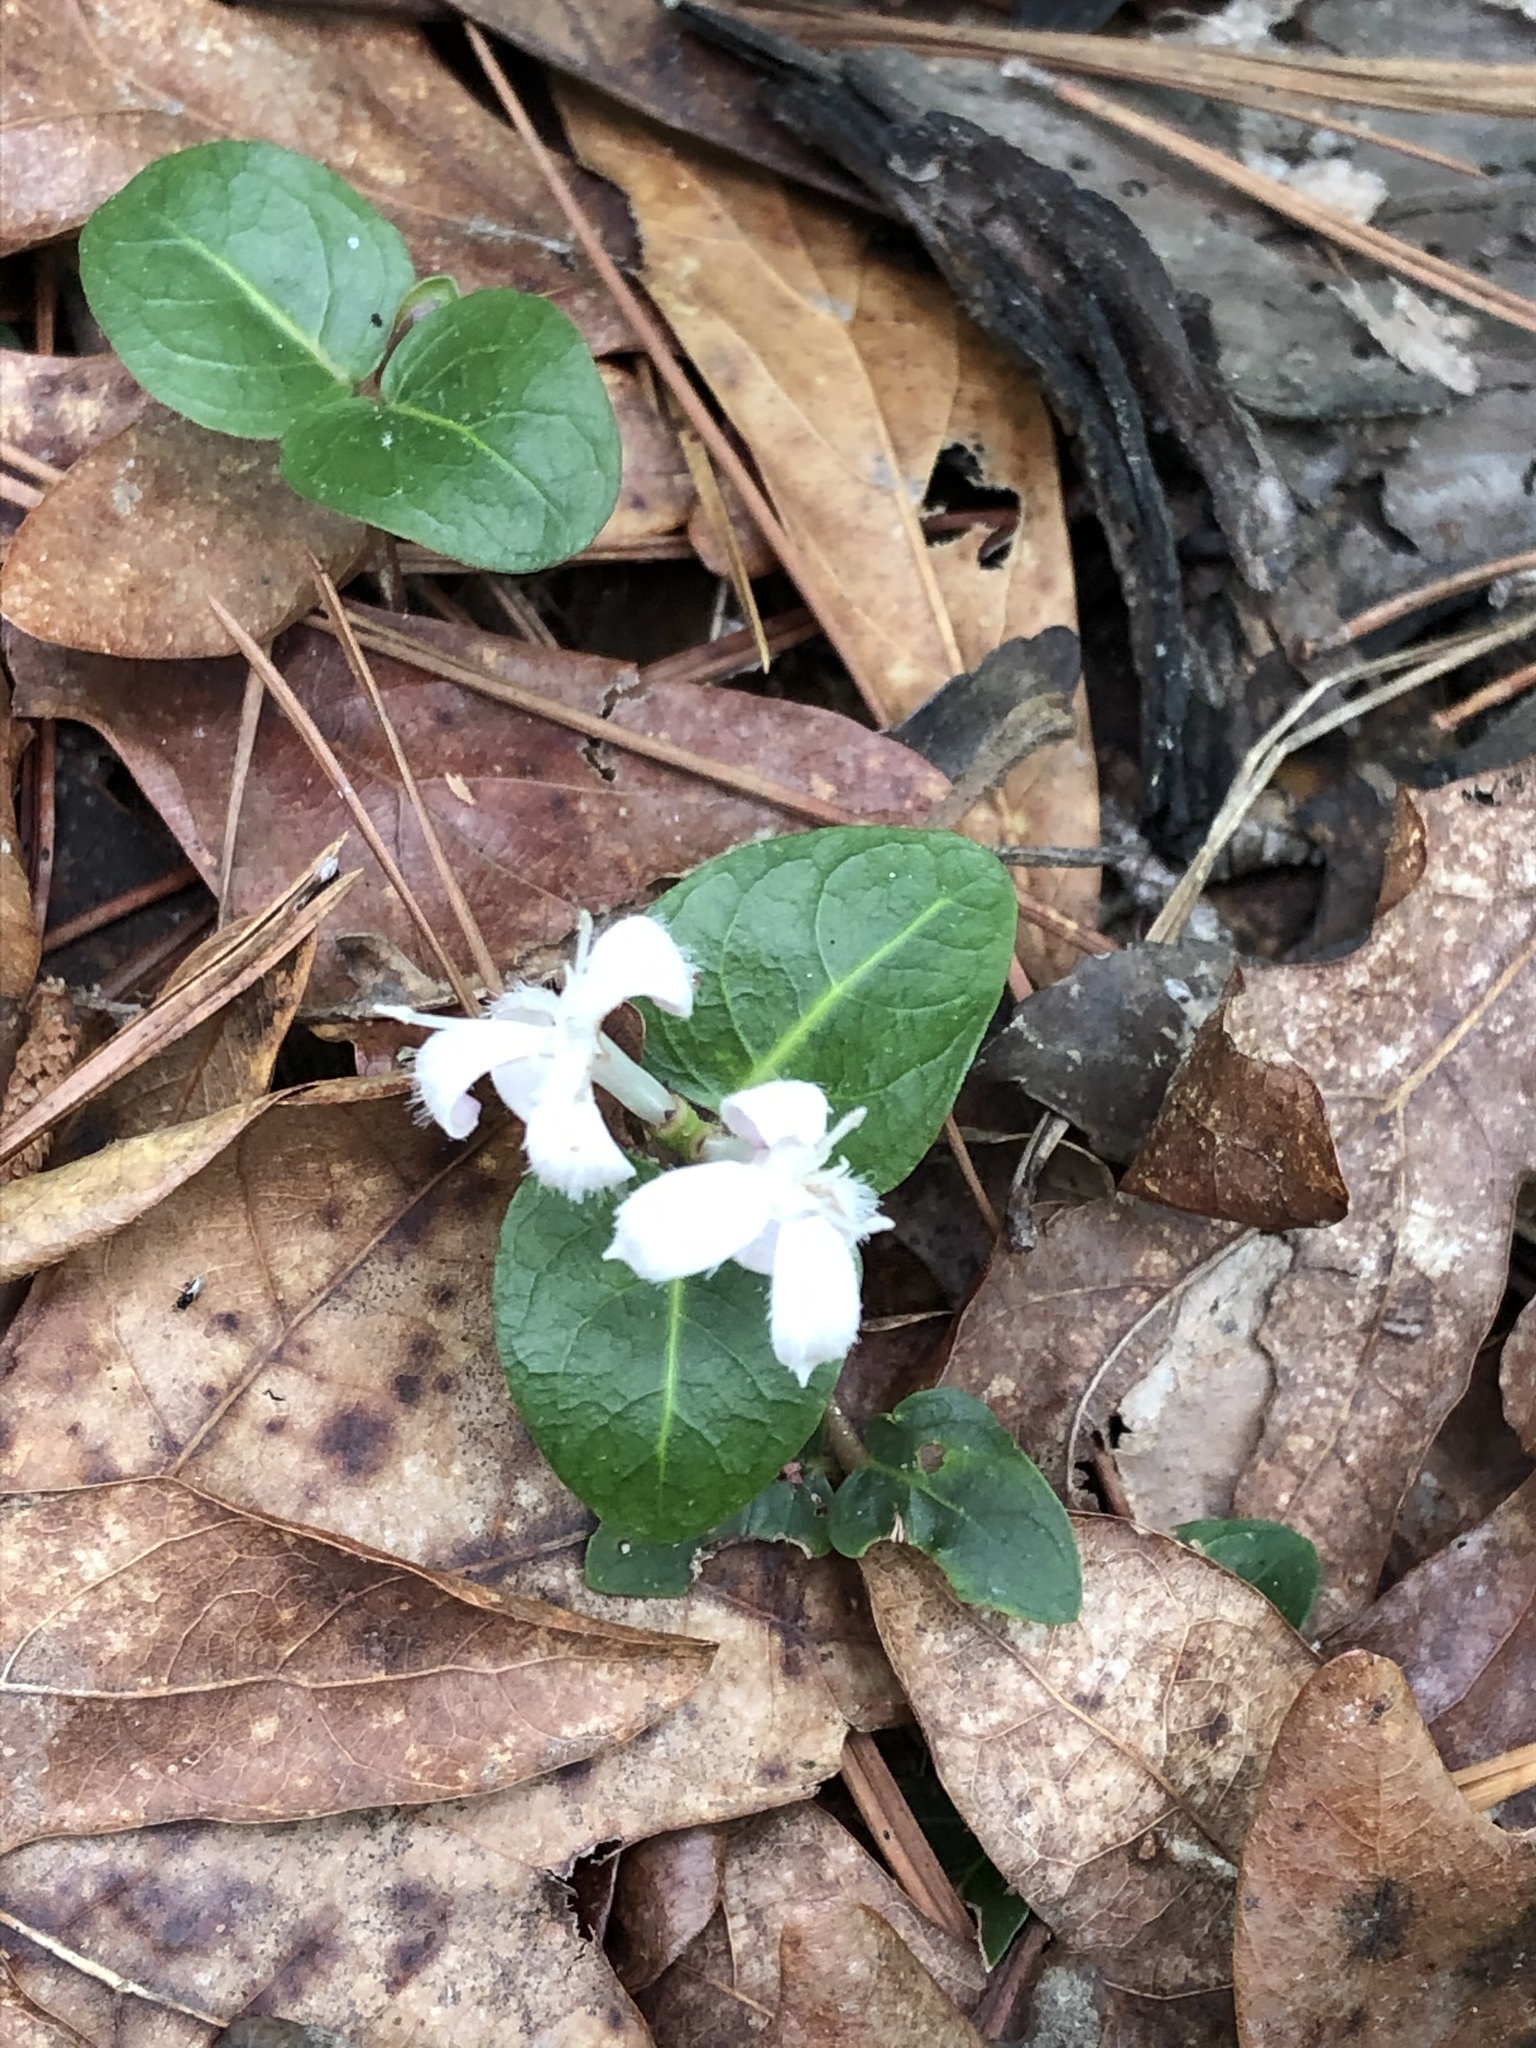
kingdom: Plantae
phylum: Tracheophyta
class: Magnoliopsida
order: Gentianales
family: Rubiaceae
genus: Mitchella
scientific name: Mitchella repens
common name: Partridge-berry
